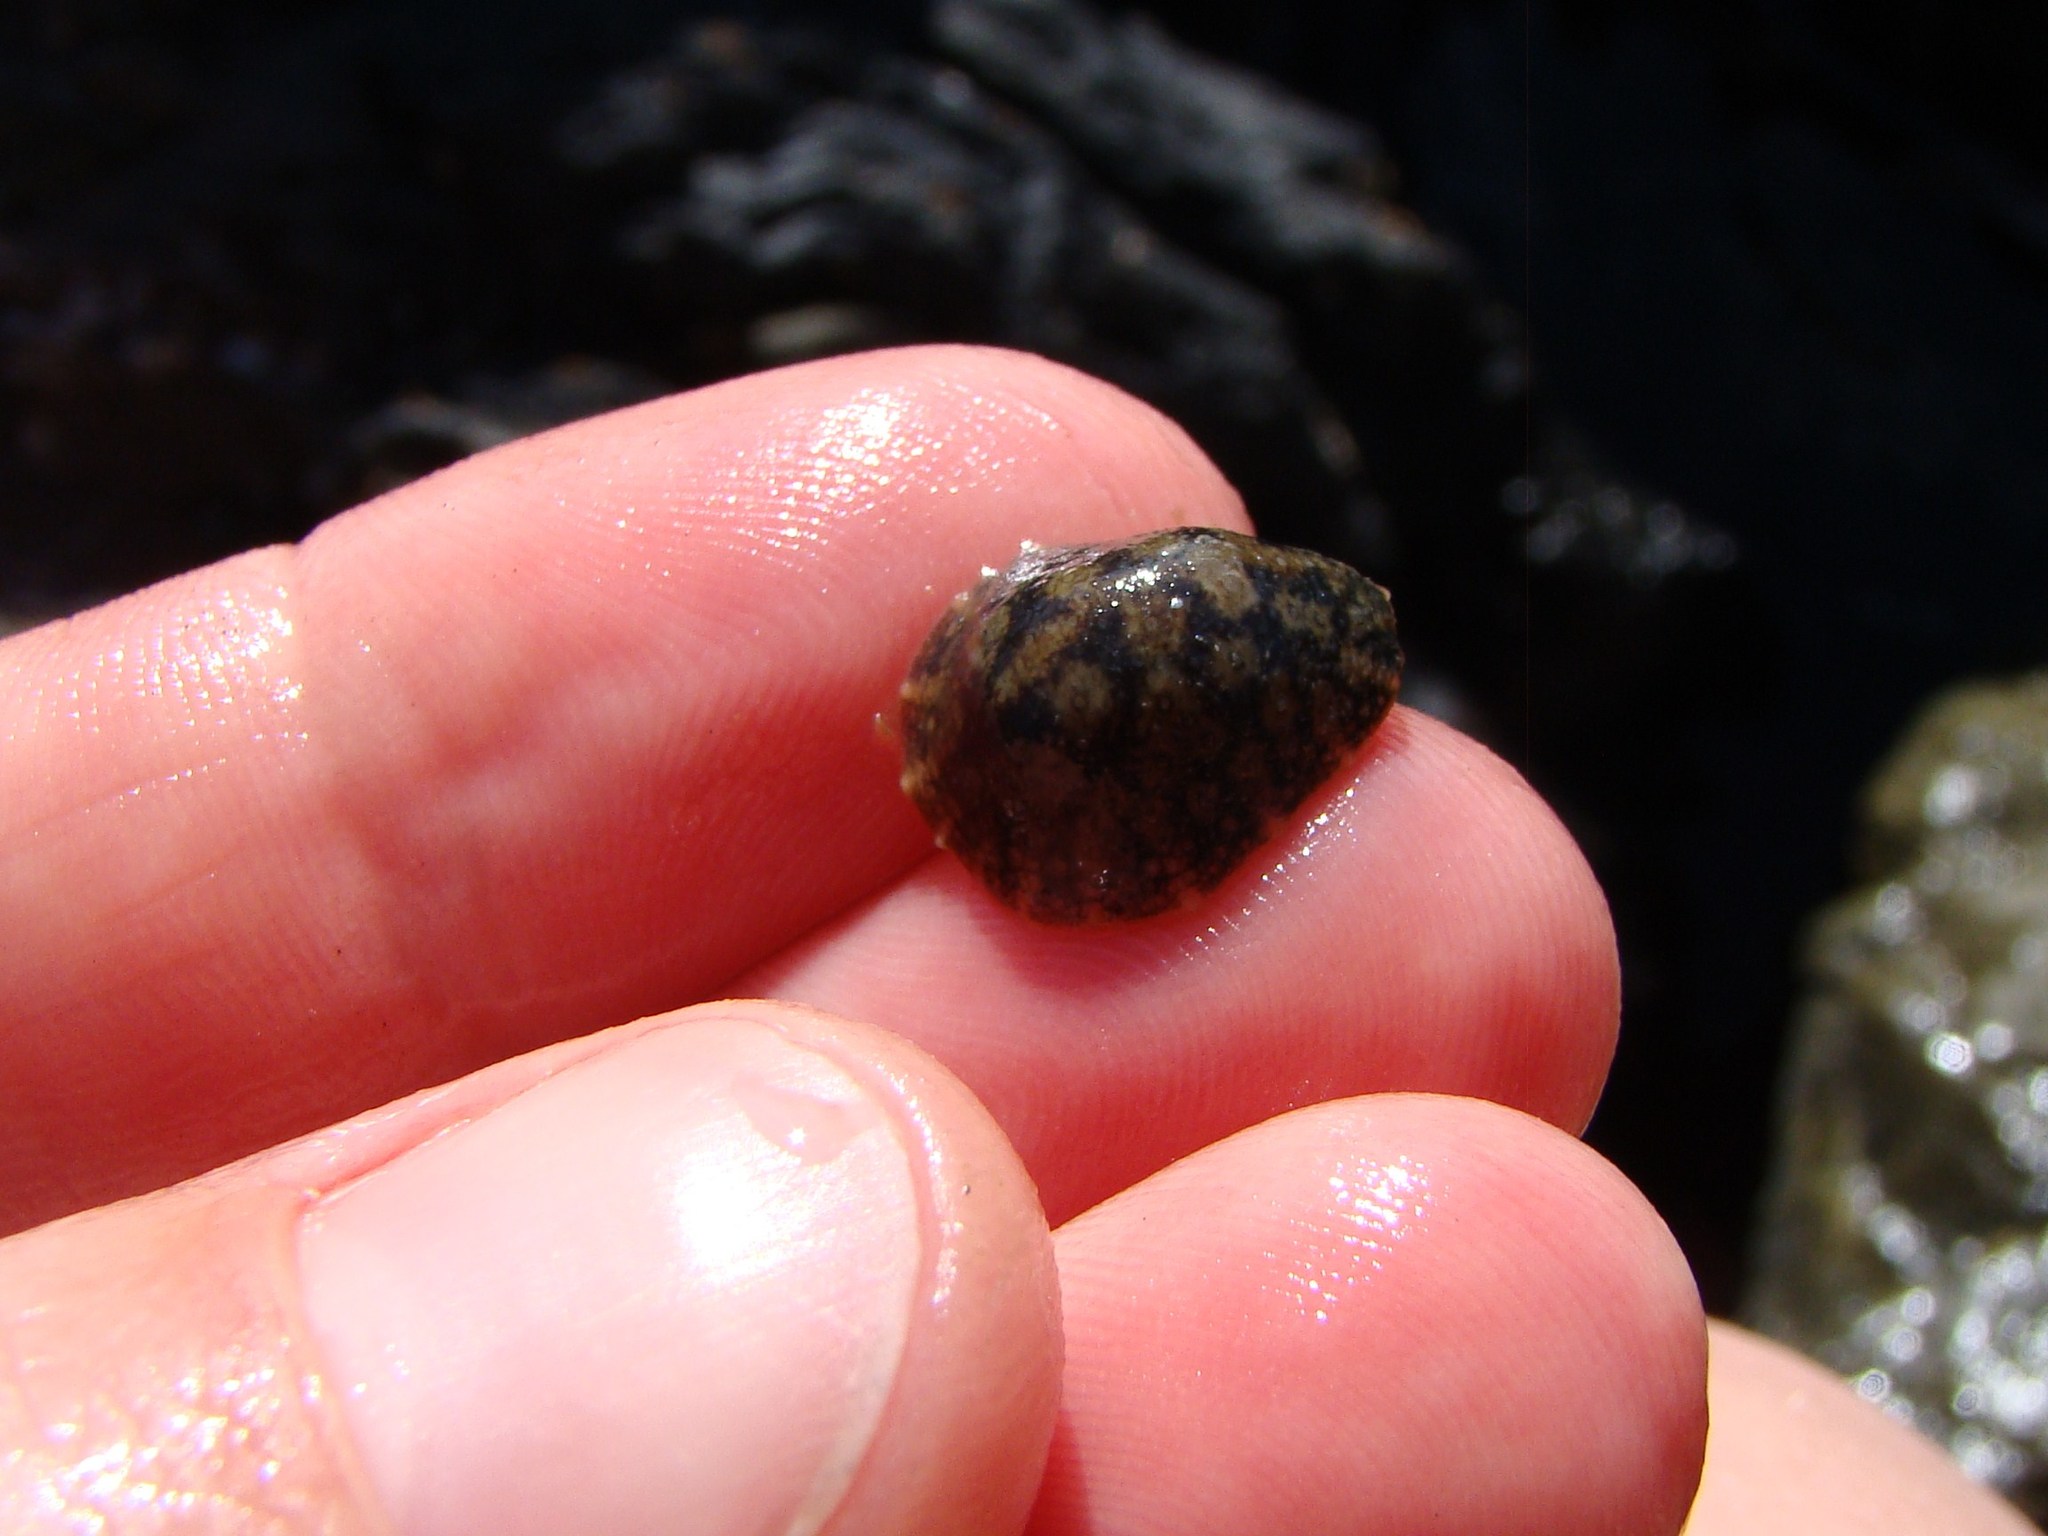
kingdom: Animalia
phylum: Mollusca
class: Gastropoda
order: Systellommatophora
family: Onchidiidae
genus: Onchidella
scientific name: Onchidella nigricans
